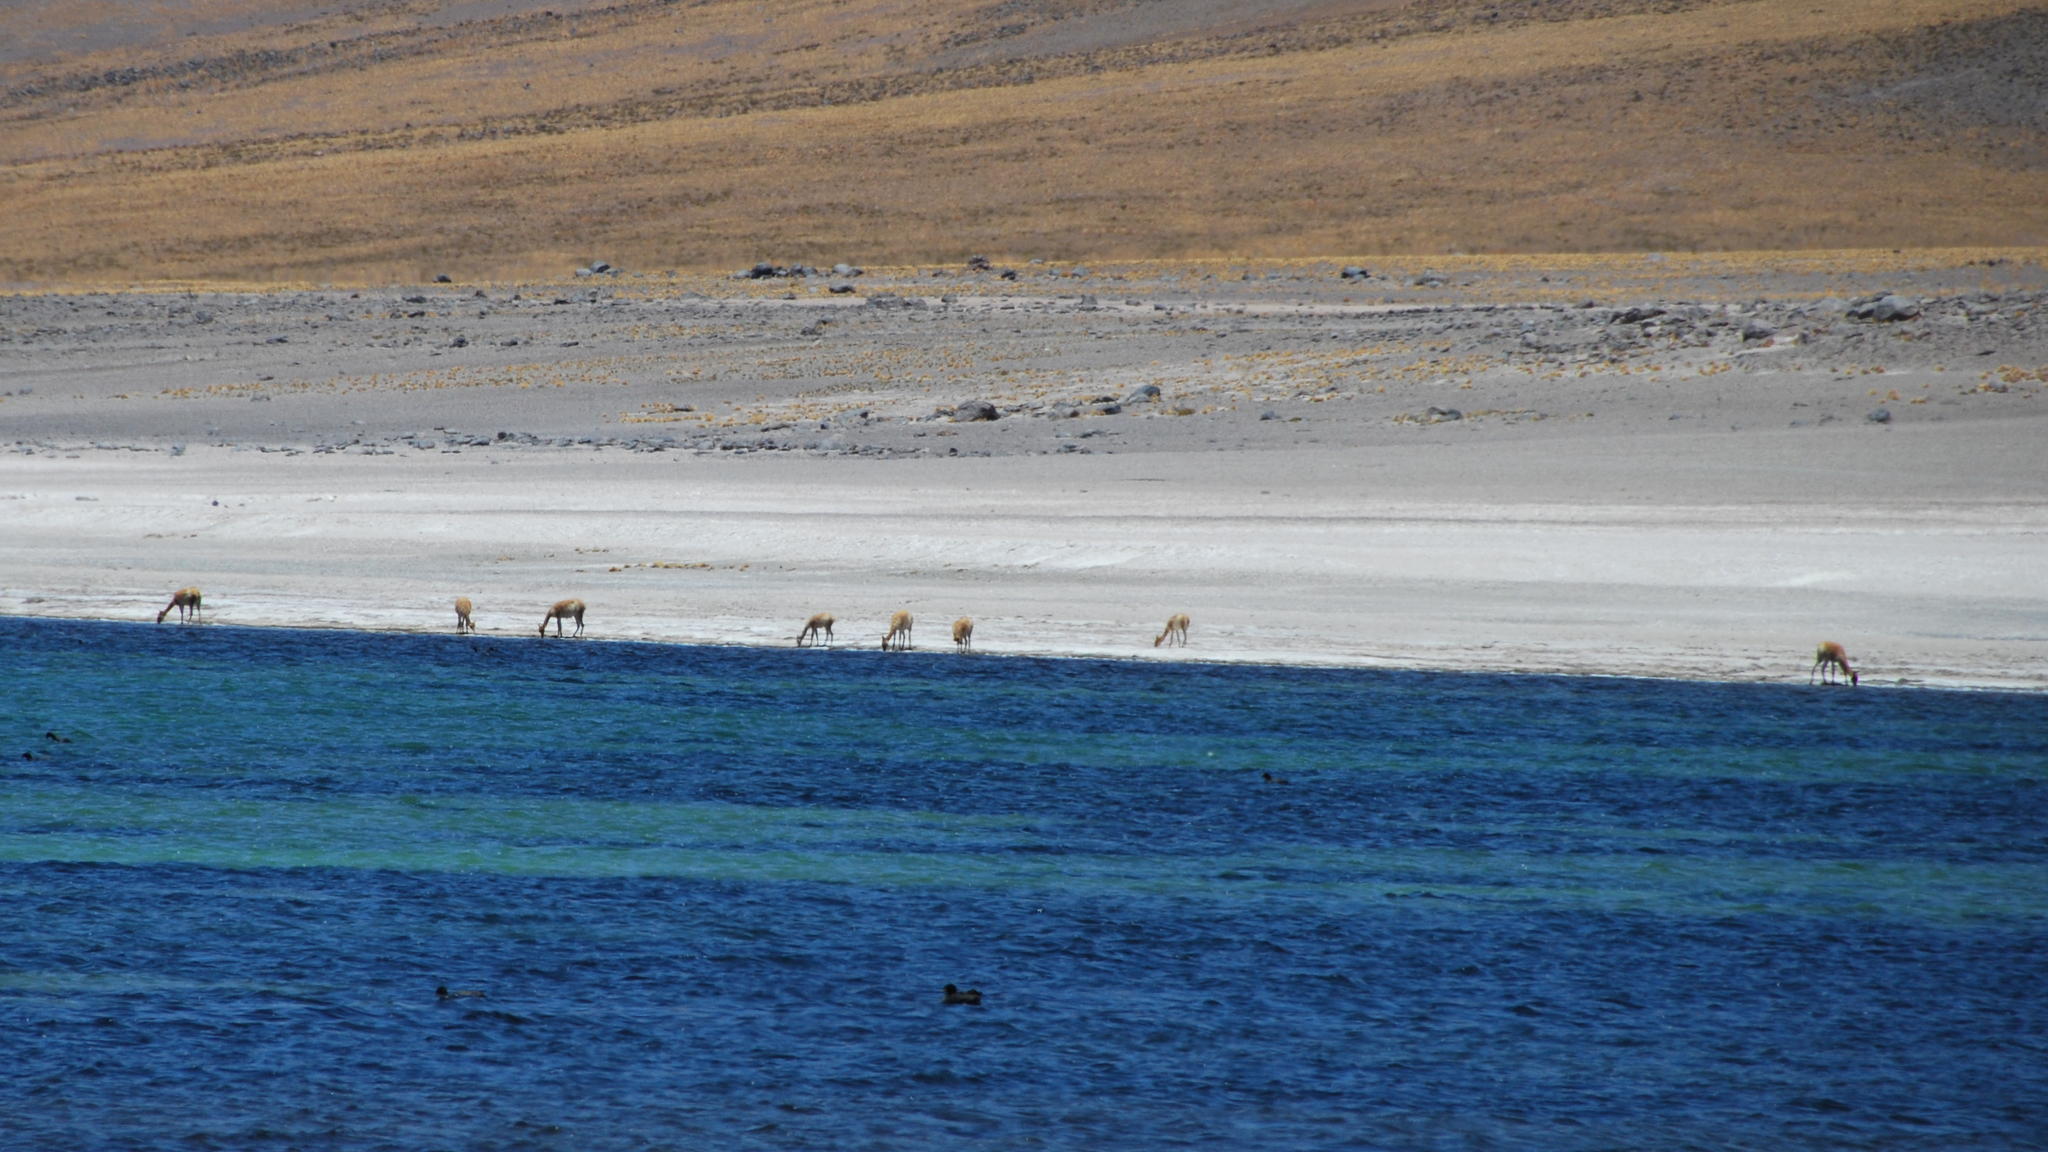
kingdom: Animalia
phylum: Chordata
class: Mammalia
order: Artiodactyla
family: Camelidae
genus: Vicugna
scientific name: Vicugna vicugna
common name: Vicugna
